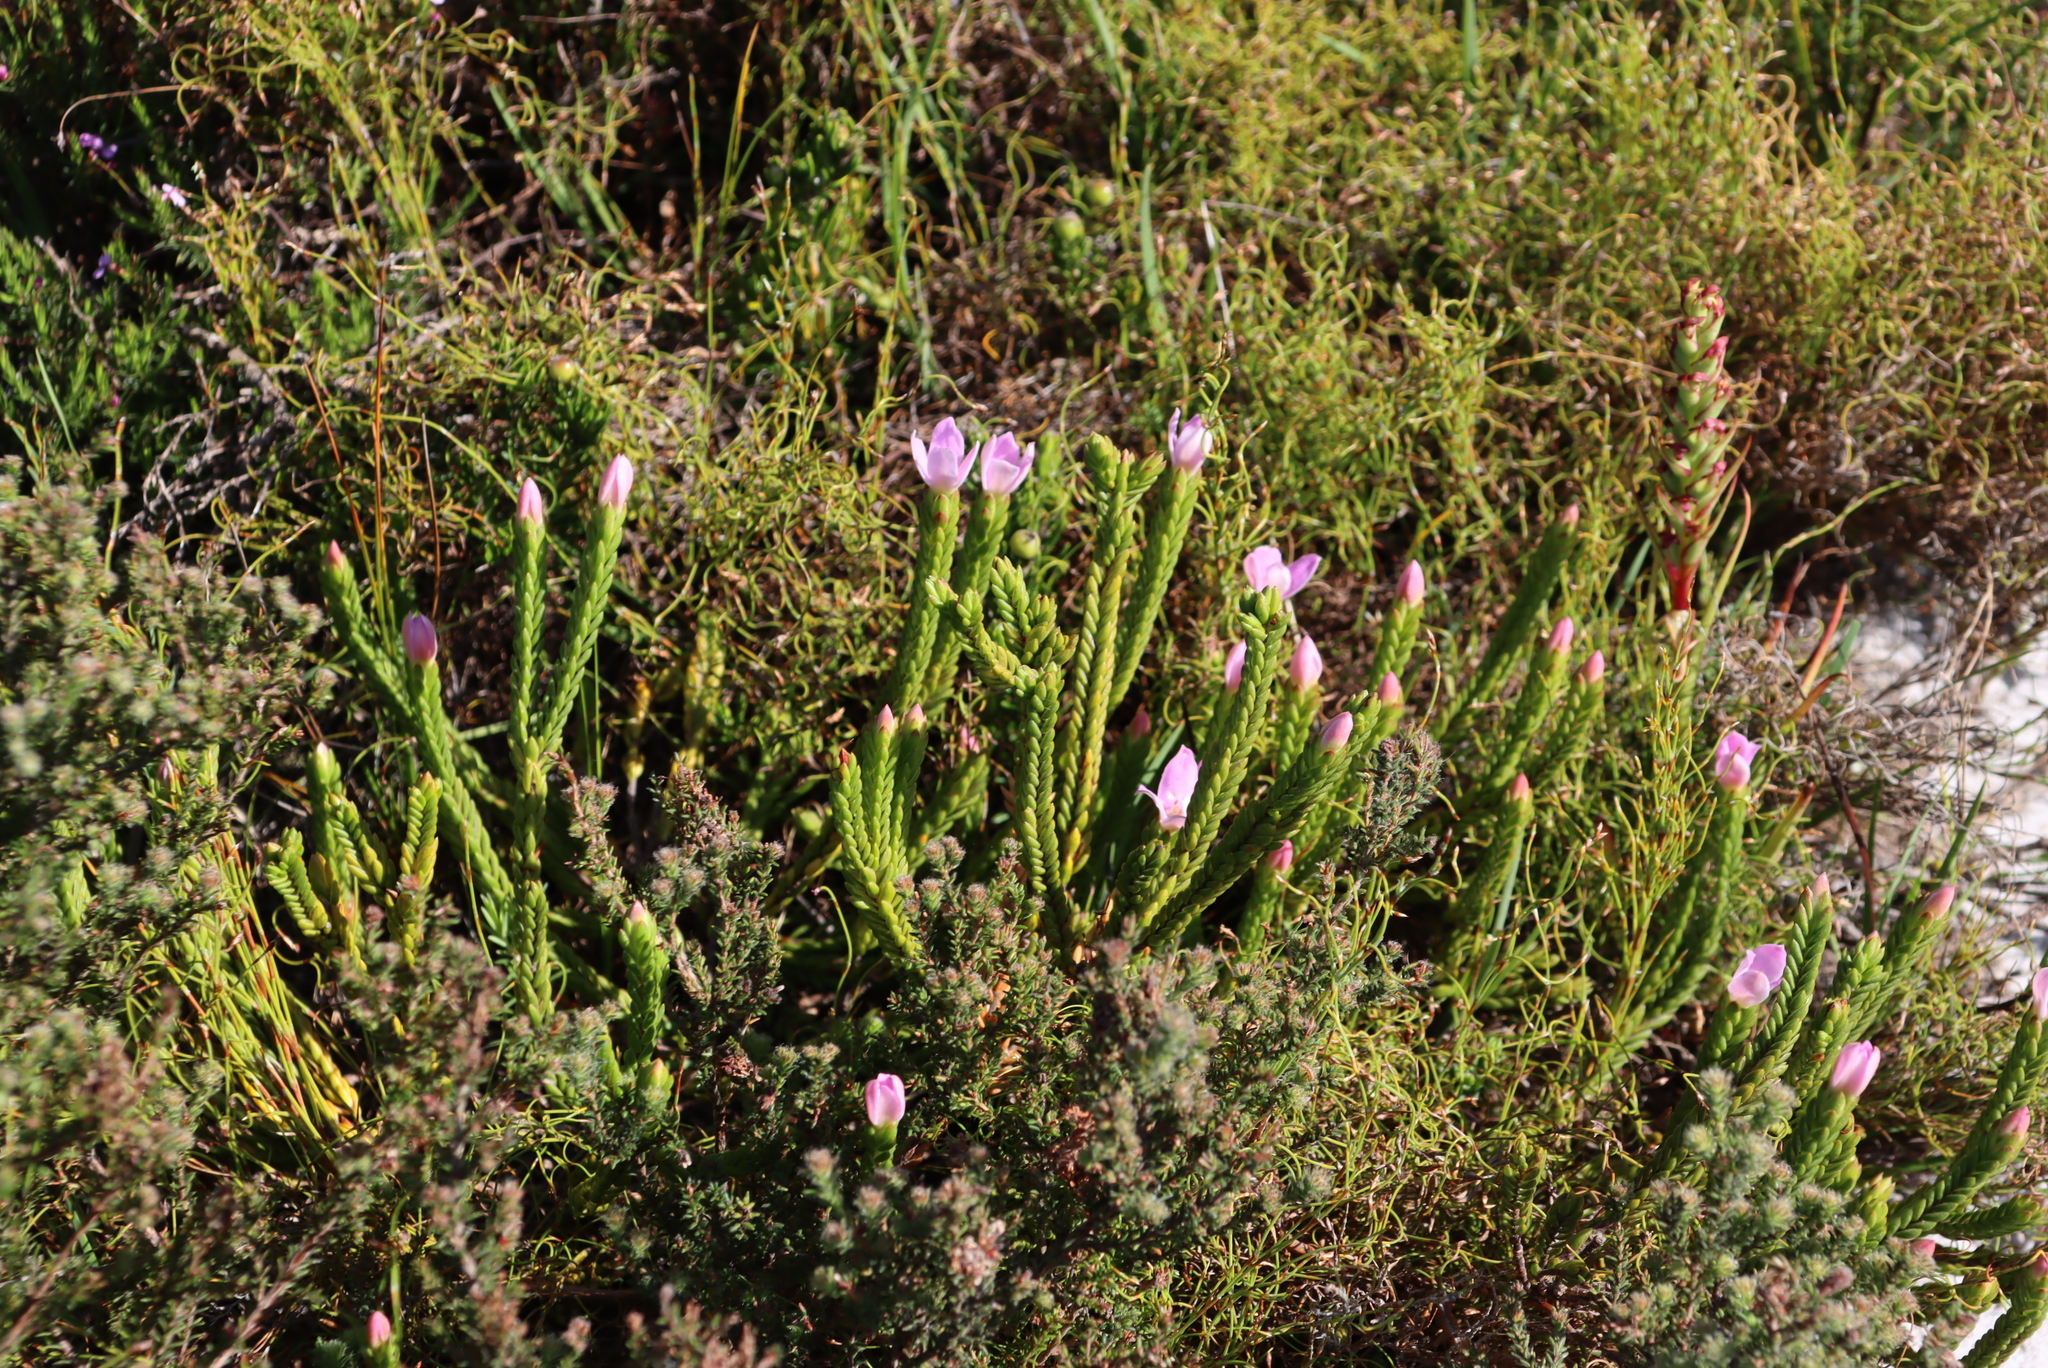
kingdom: Plantae
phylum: Tracheophyta
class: Magnoliopsida
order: Malvales
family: Thymelaeaceae
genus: Lachnaea
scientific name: Lachnaea grandiflora
